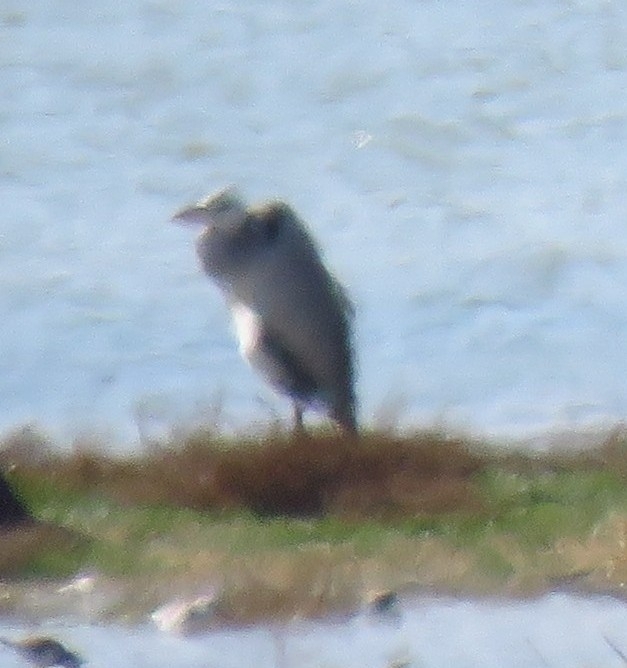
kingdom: Animalia
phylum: Chordata
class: Aves
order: Pelecaniformes
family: Ardeidae
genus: Ardea
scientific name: Ardea cinerea
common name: Grey heron
